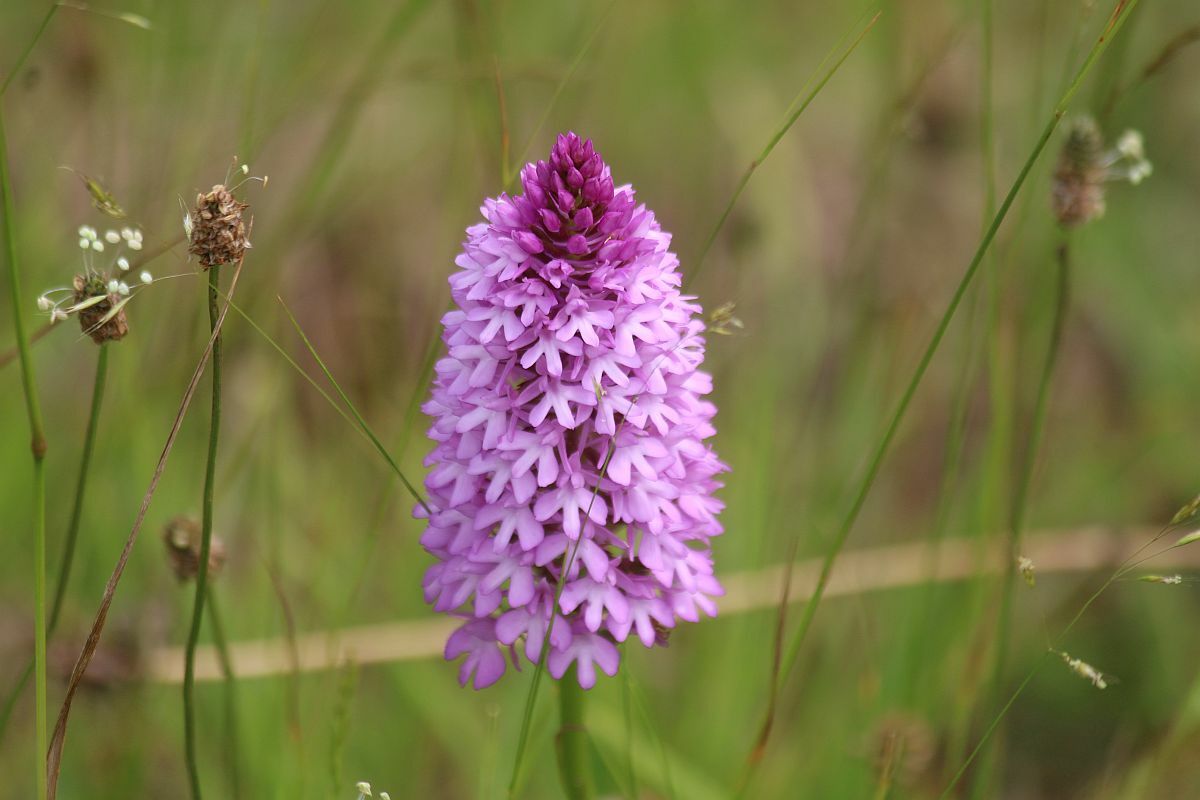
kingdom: Plantae
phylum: Tracheophyta
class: Liliopsida
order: Asparagales
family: Orchidaceae
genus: Anacamptis
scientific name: Anacamptis pyramidalis
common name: Pyramidal orchid
